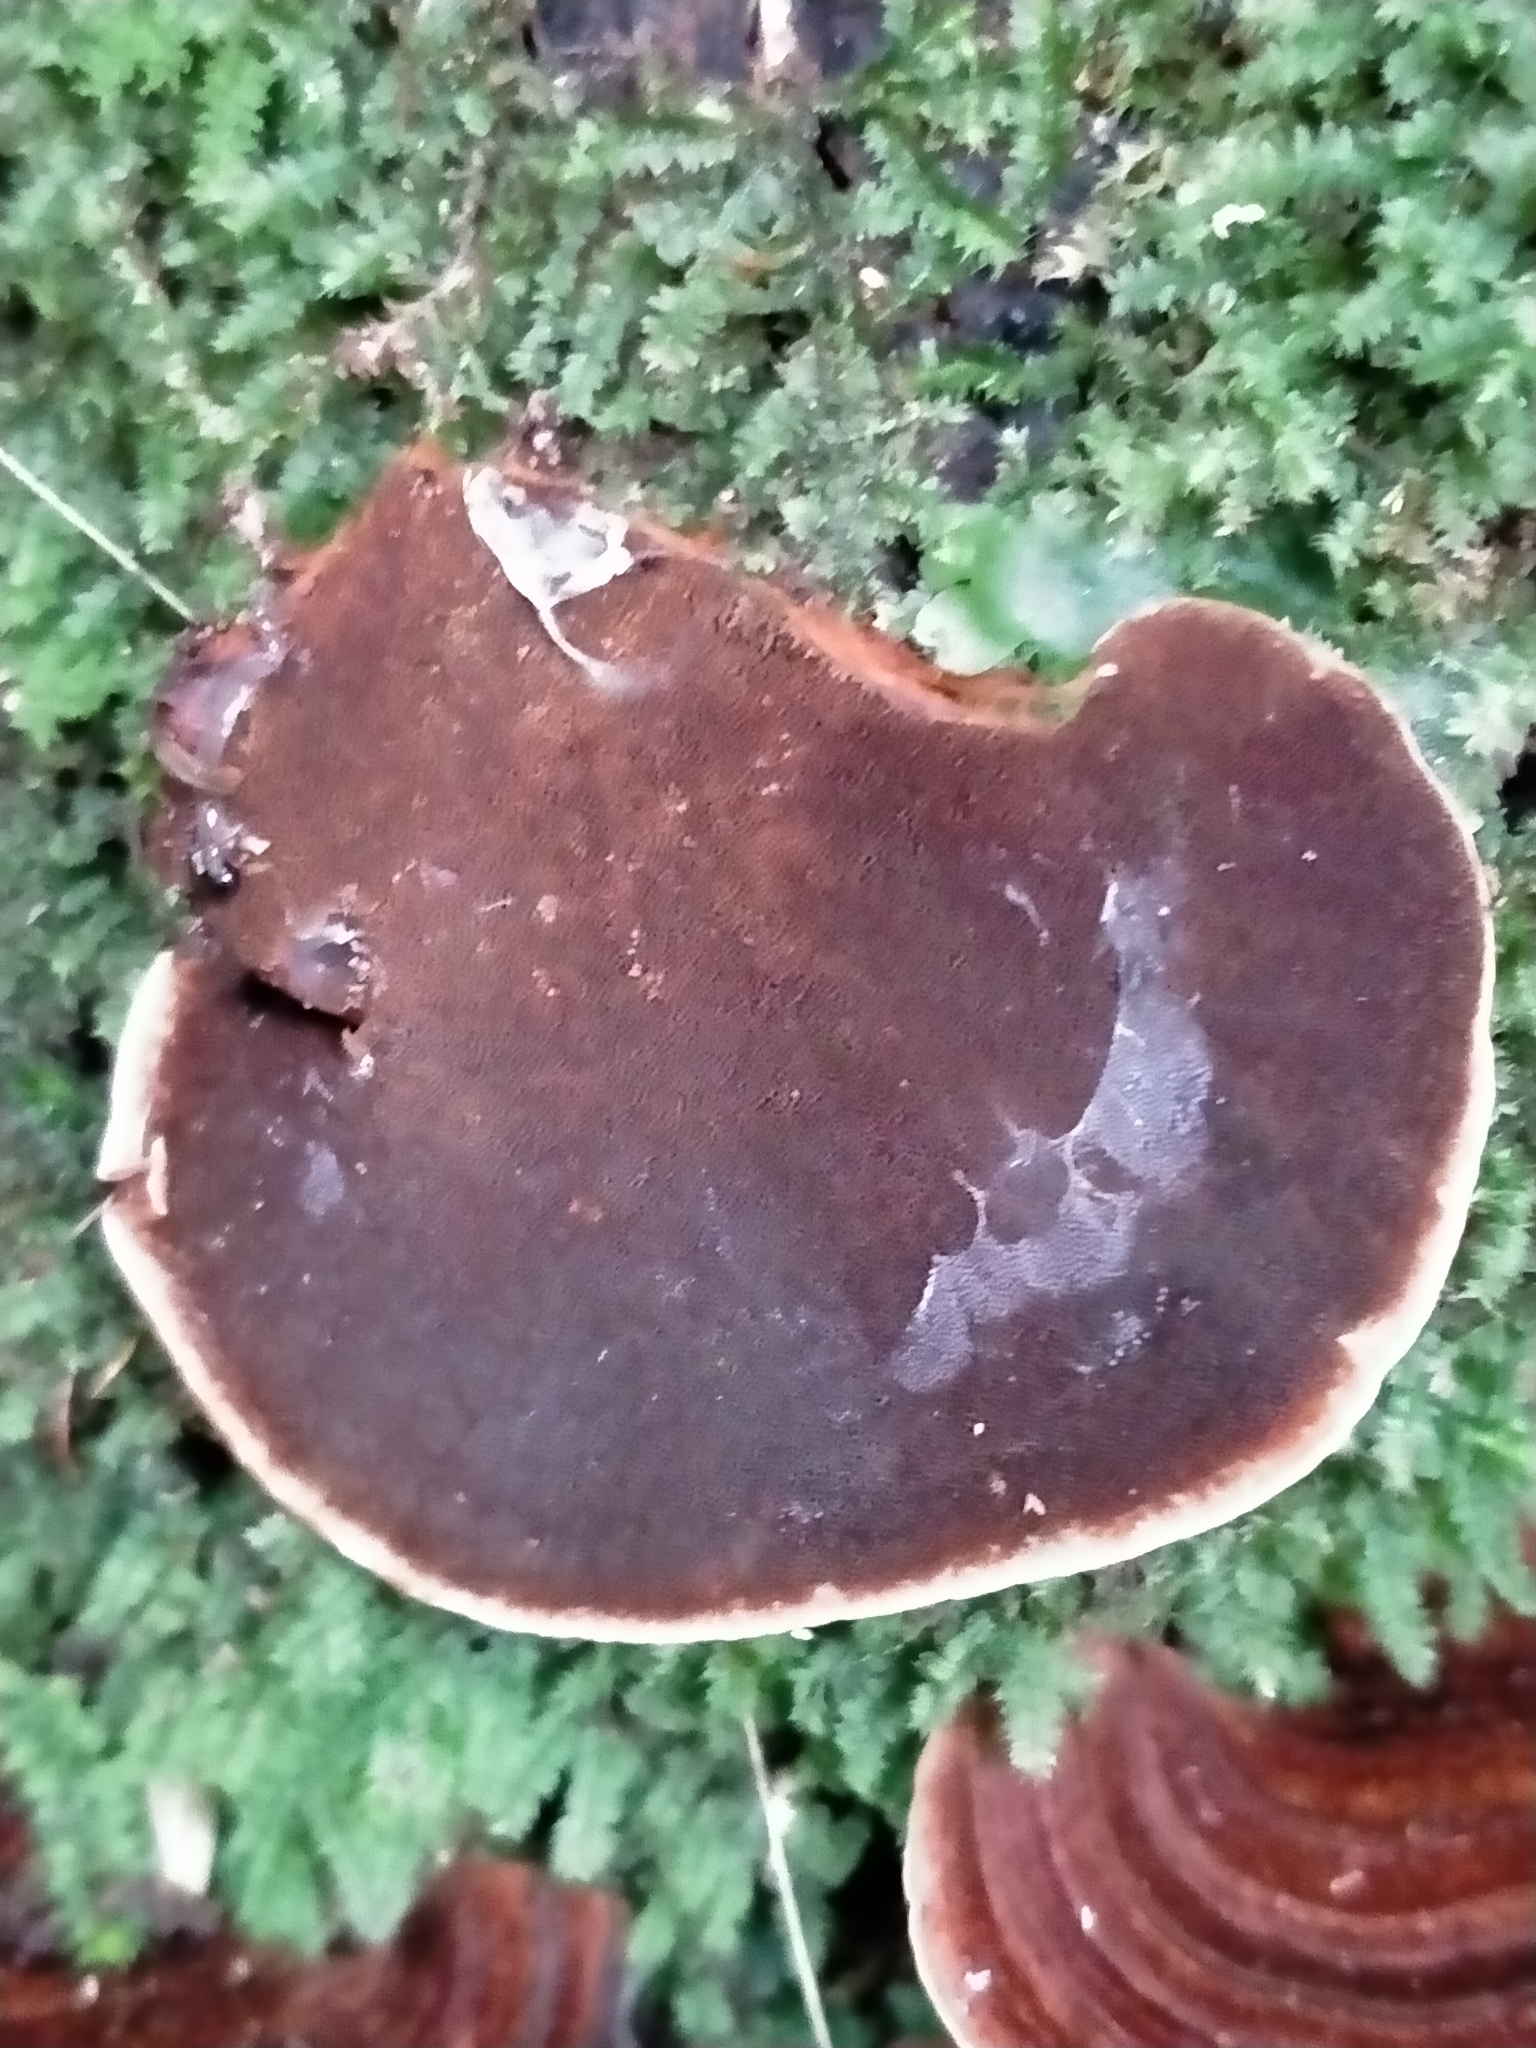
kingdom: Fungi
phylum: Basidiomycota
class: Agaricomycetes
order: Hymenochaetales
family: Hymenochaetaceae
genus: Hymenochaete
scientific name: Hymenochaete microcycla
